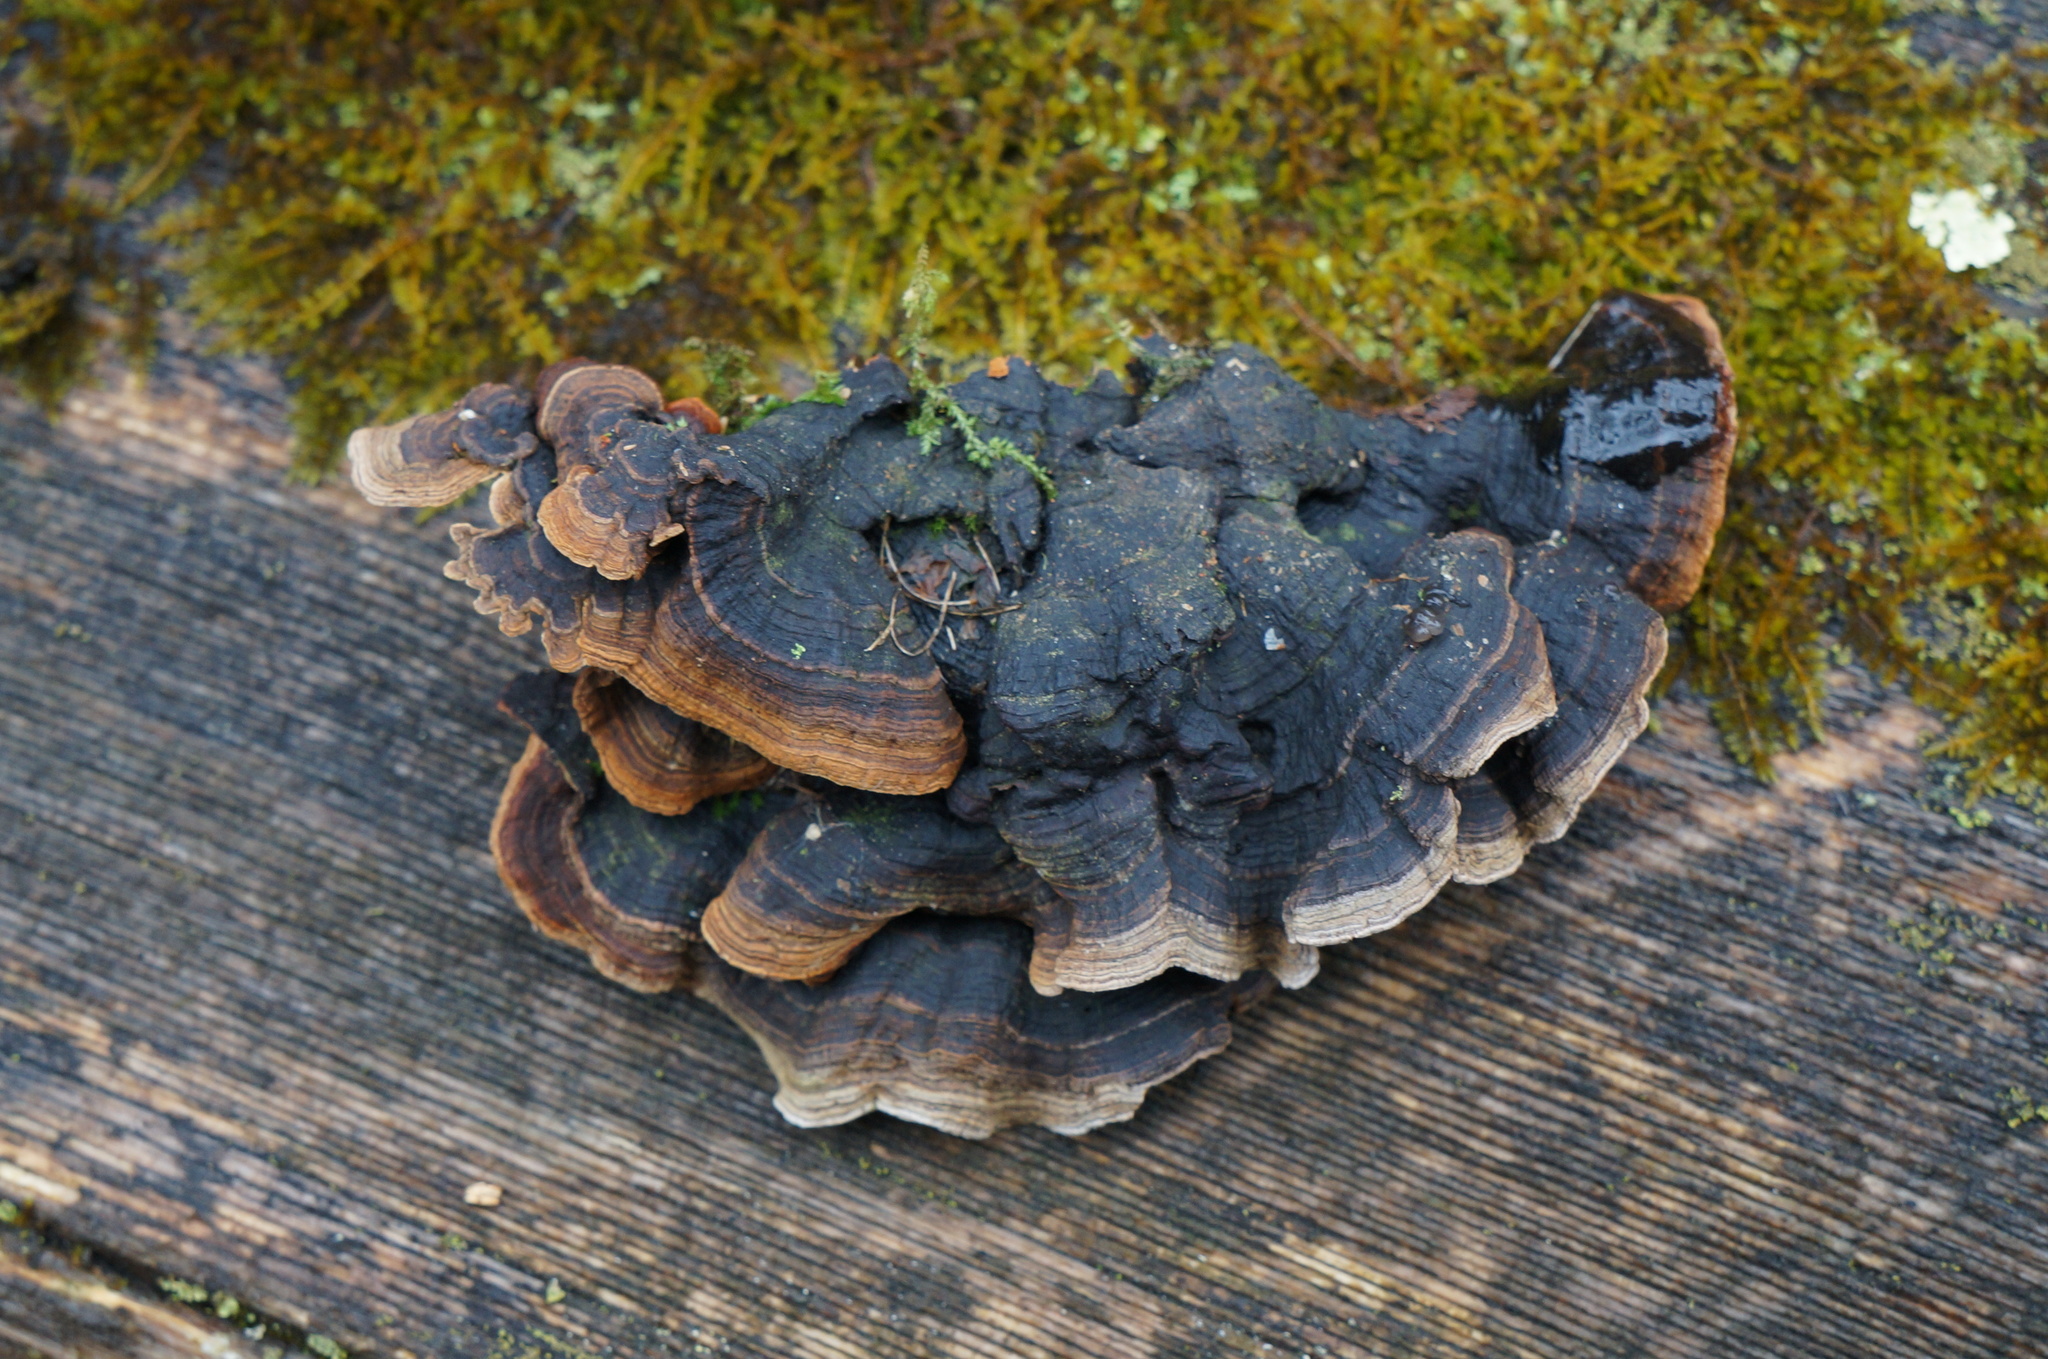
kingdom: Fungi
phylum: Basidiomycota
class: Agaricomycetes
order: Hymenochaetales
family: Hymenochaetaceae
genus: Hydnoporia
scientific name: Hydnoporia tabacina
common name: Willow glue
